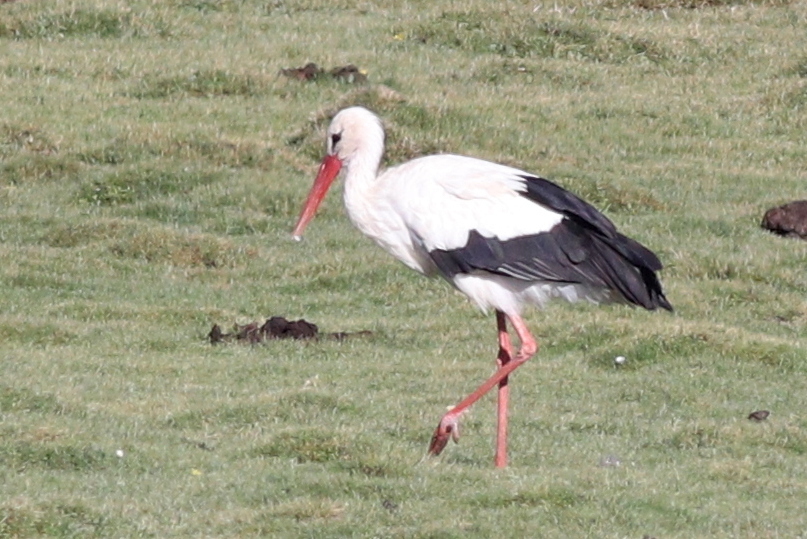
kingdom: Animalia
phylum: Chordata
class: Aves
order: Ciconiiformes
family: Ciconiidae
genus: Ciconia
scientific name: Ciconia ciconia
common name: White stork
